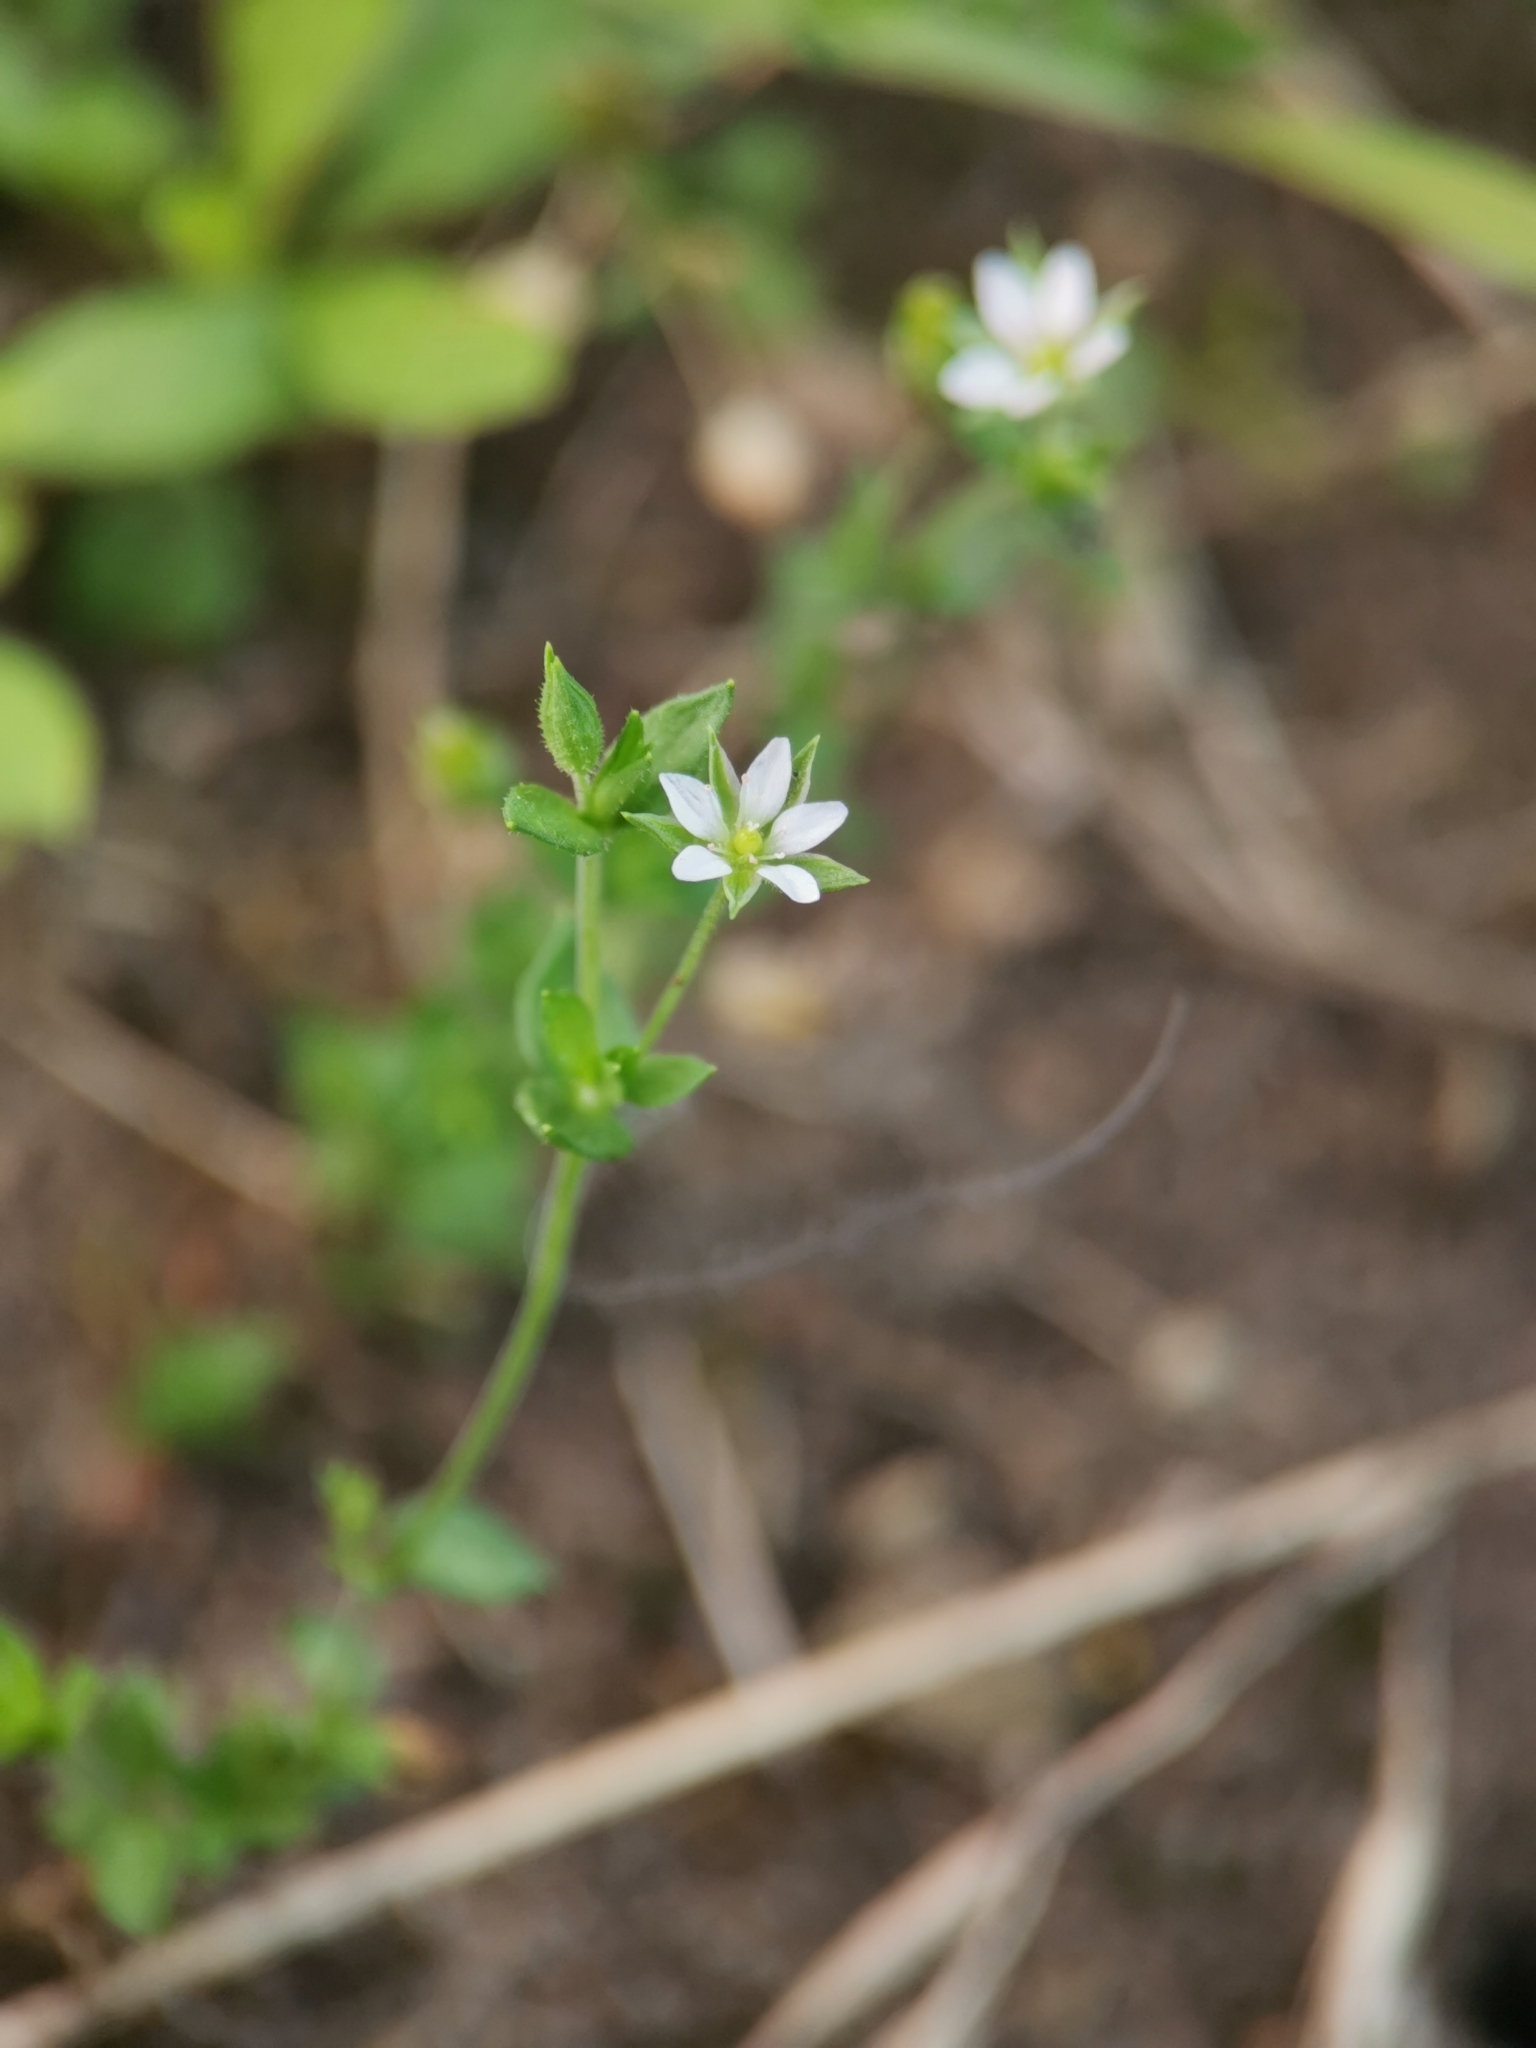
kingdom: Plantae
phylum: Tracheophyta
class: Magnoliopsida
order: Caryophyllales
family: Caryophyllaceae
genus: Arenaria
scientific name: Arenaria serpyllifolia
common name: Thyme-leaved sandwort
